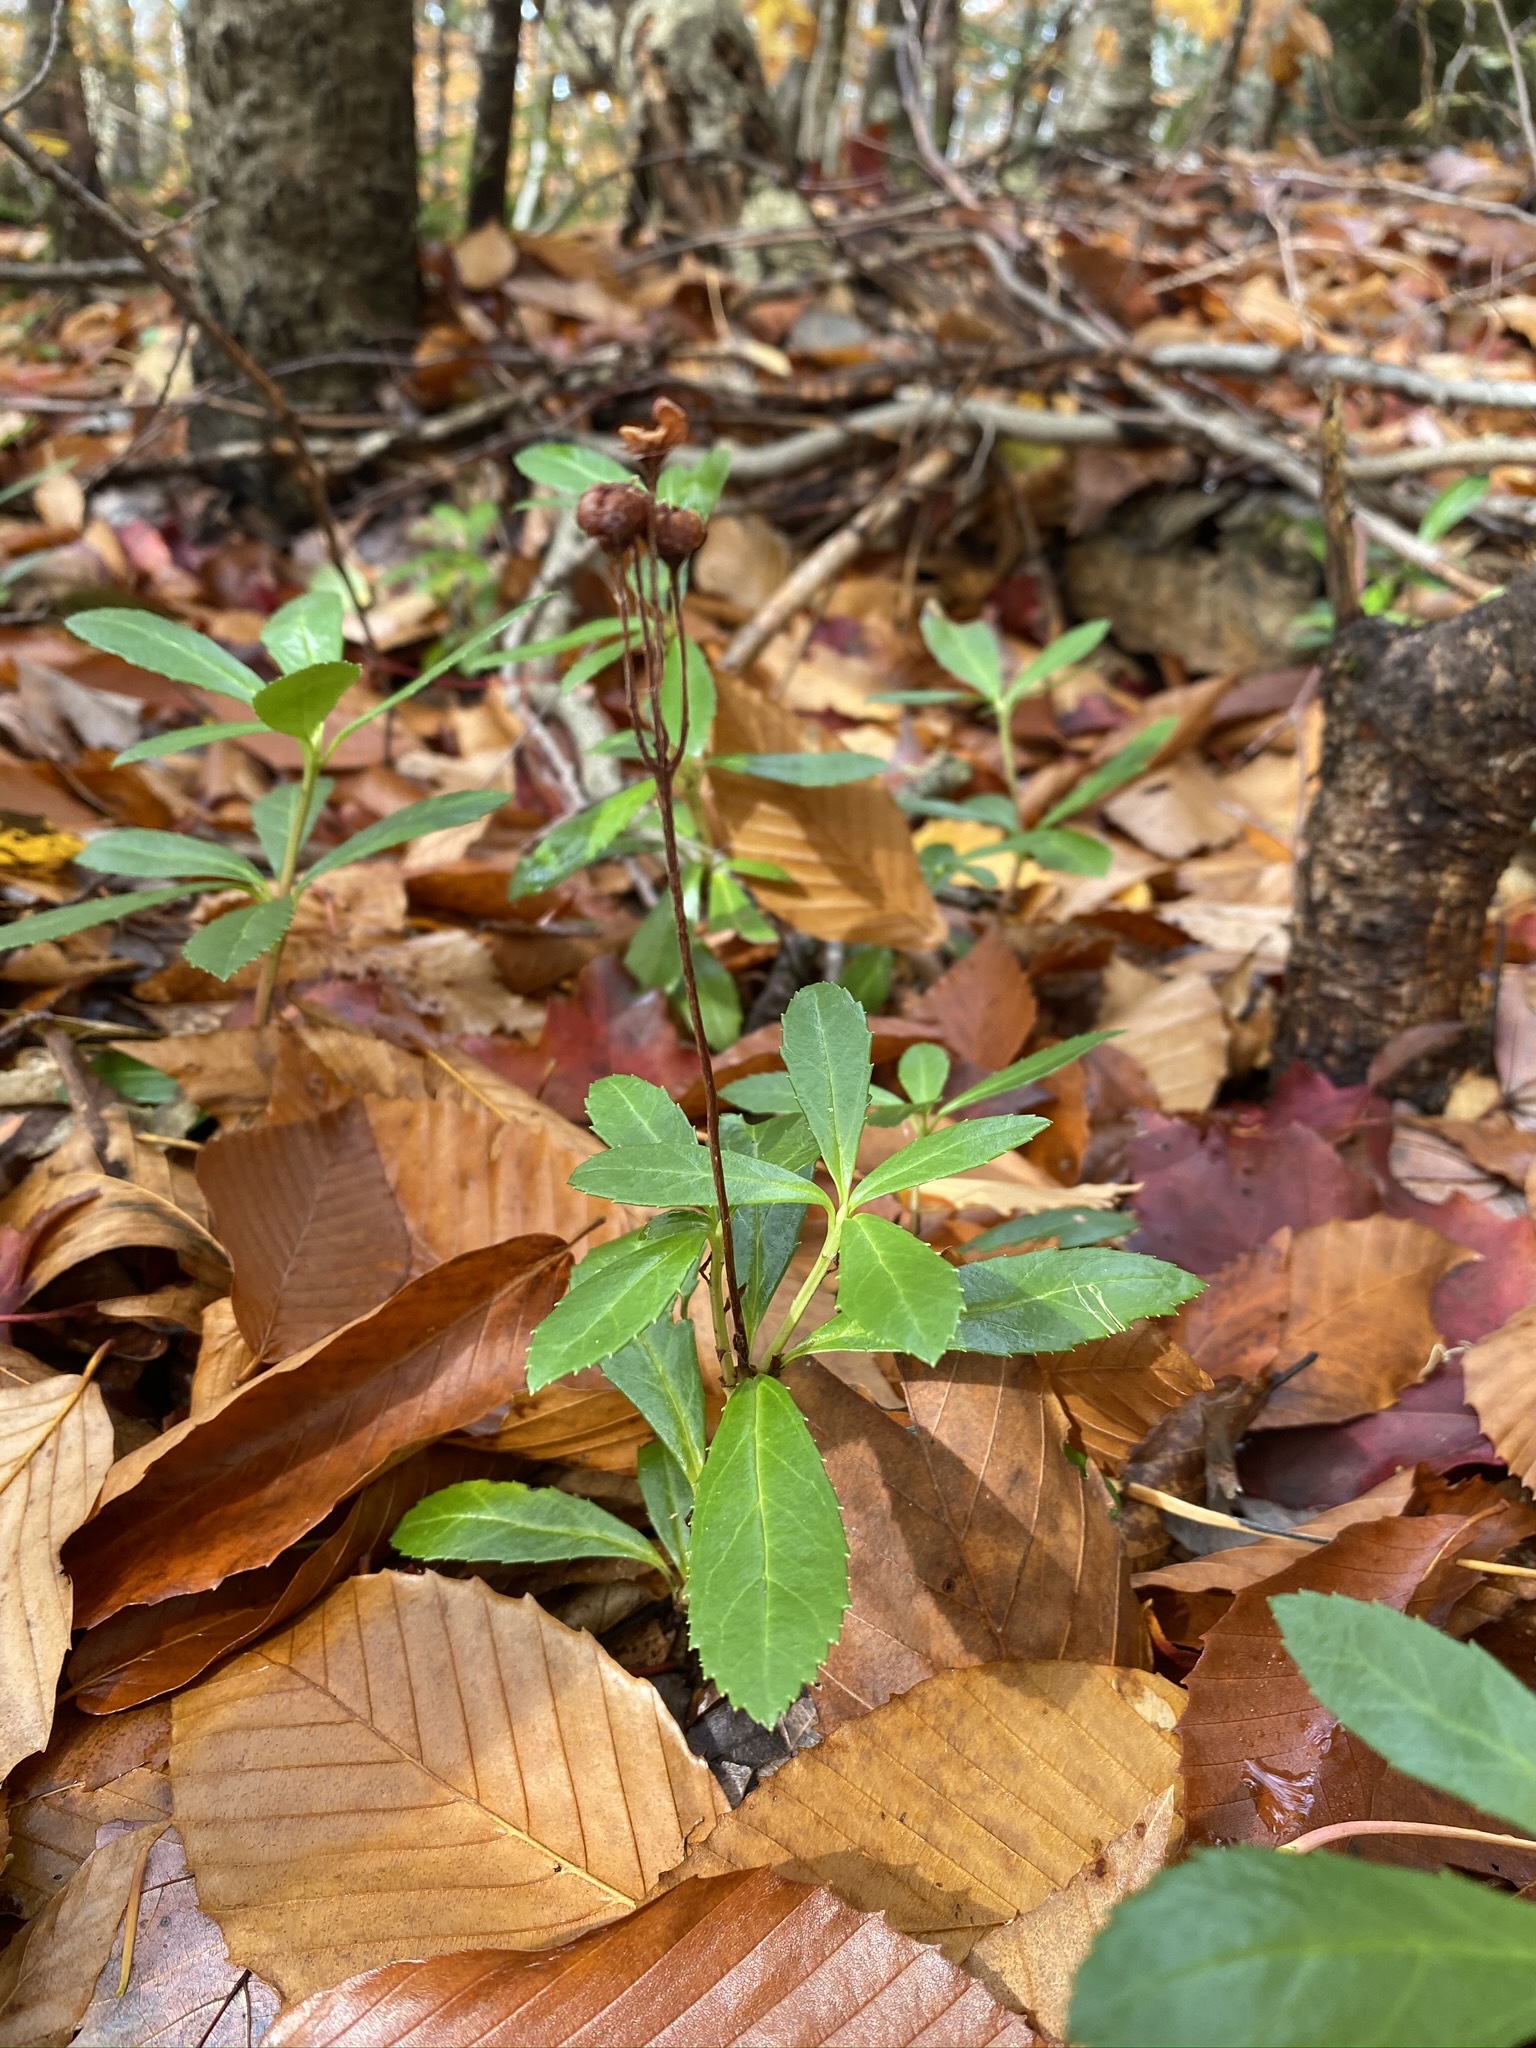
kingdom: Plantae
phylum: Tracheophyta
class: Magnoliopsida
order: Ericales
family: Ericaceae
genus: Chimaphila
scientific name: Chimaphila umbellata
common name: Pipsissewa
